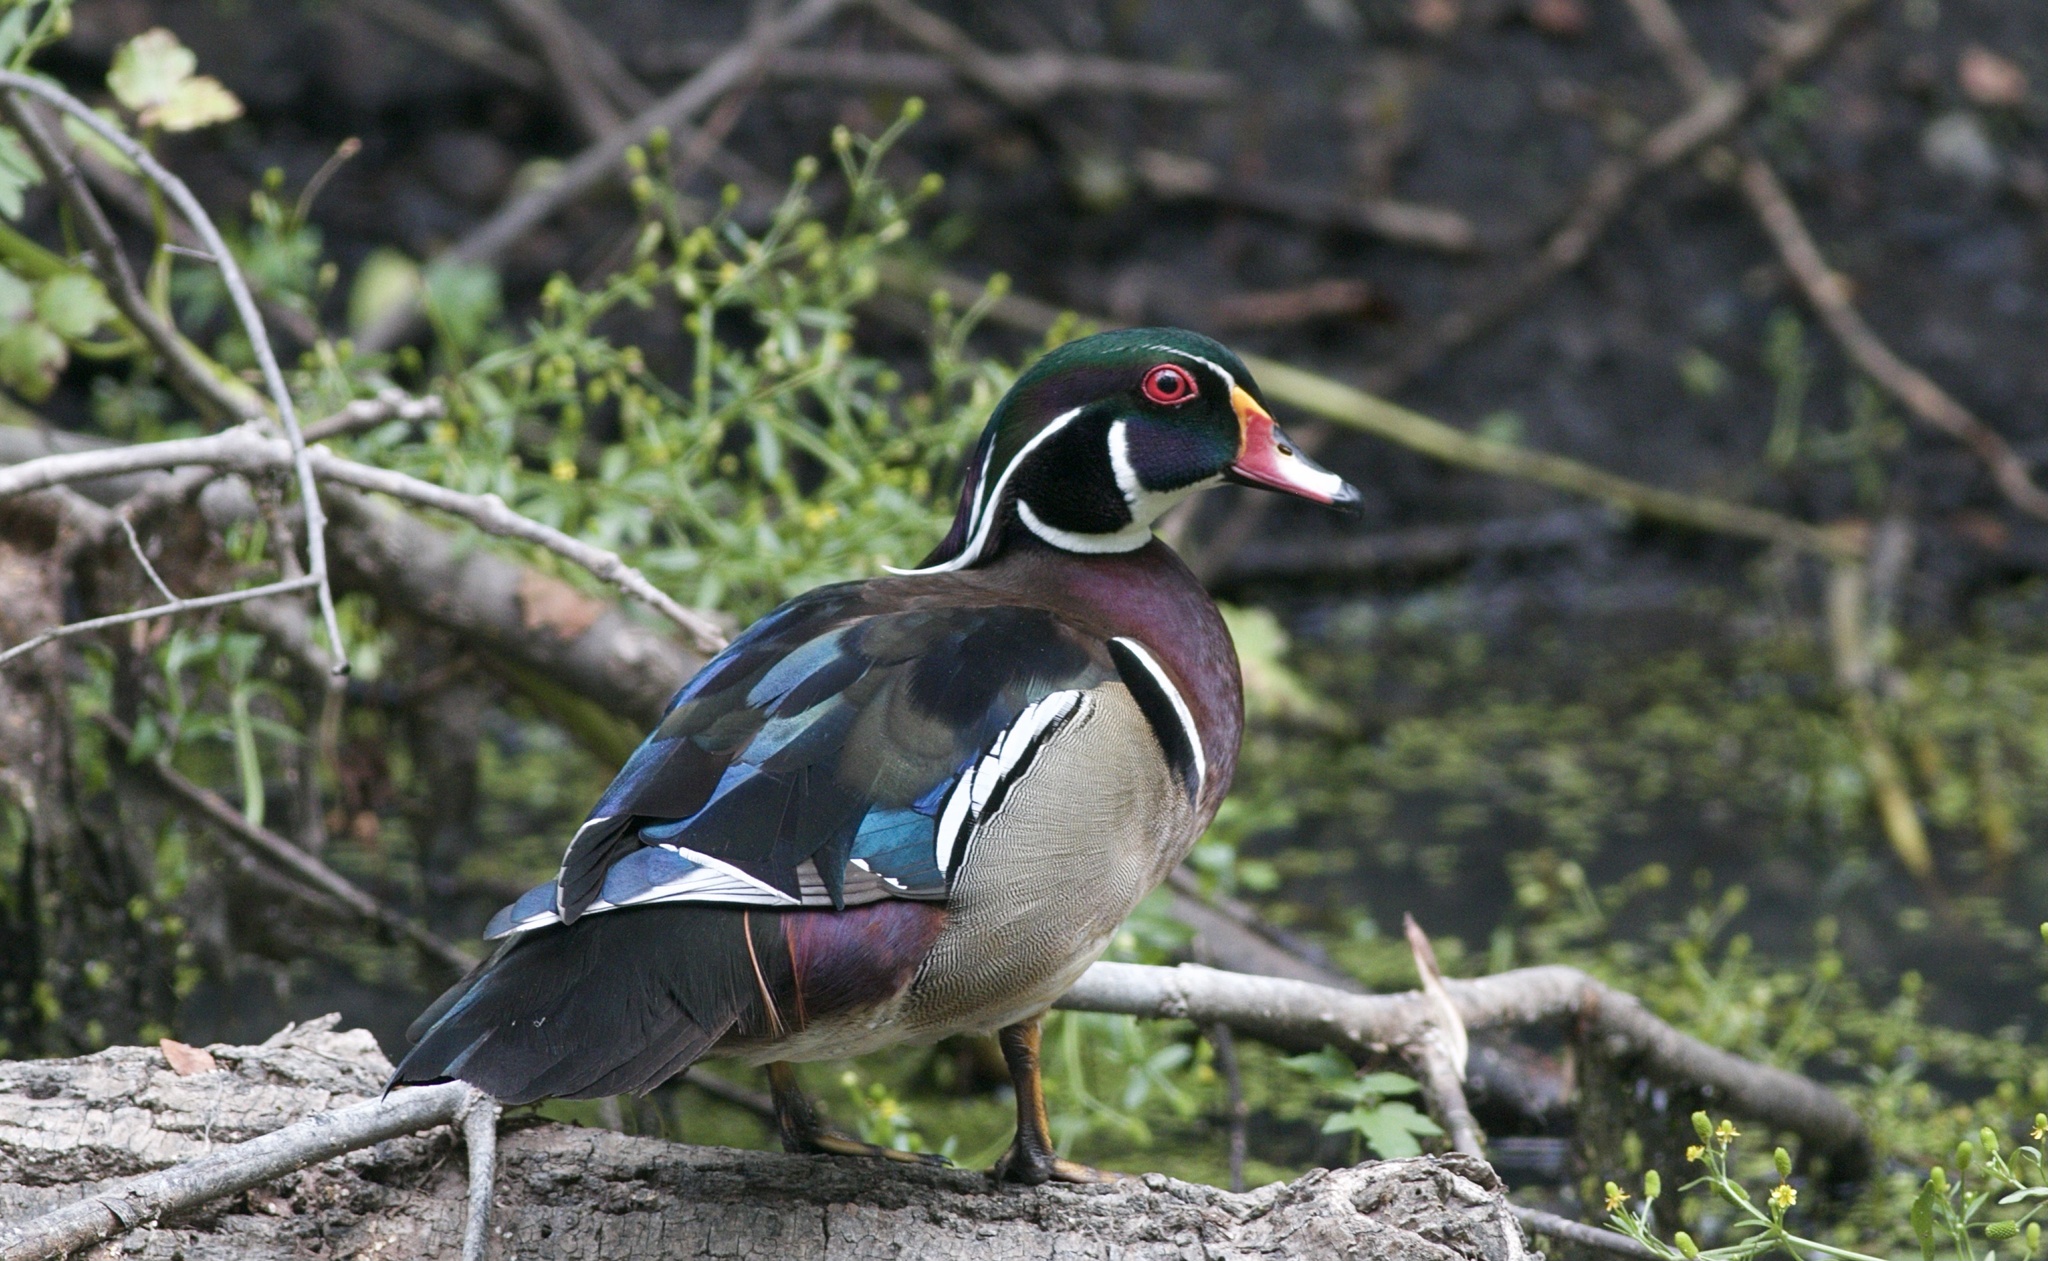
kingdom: Animalia
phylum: Chordata
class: Aves
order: Anseriformes
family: Anatidae
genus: Aix
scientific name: Aix sponsa
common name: Wood duck
